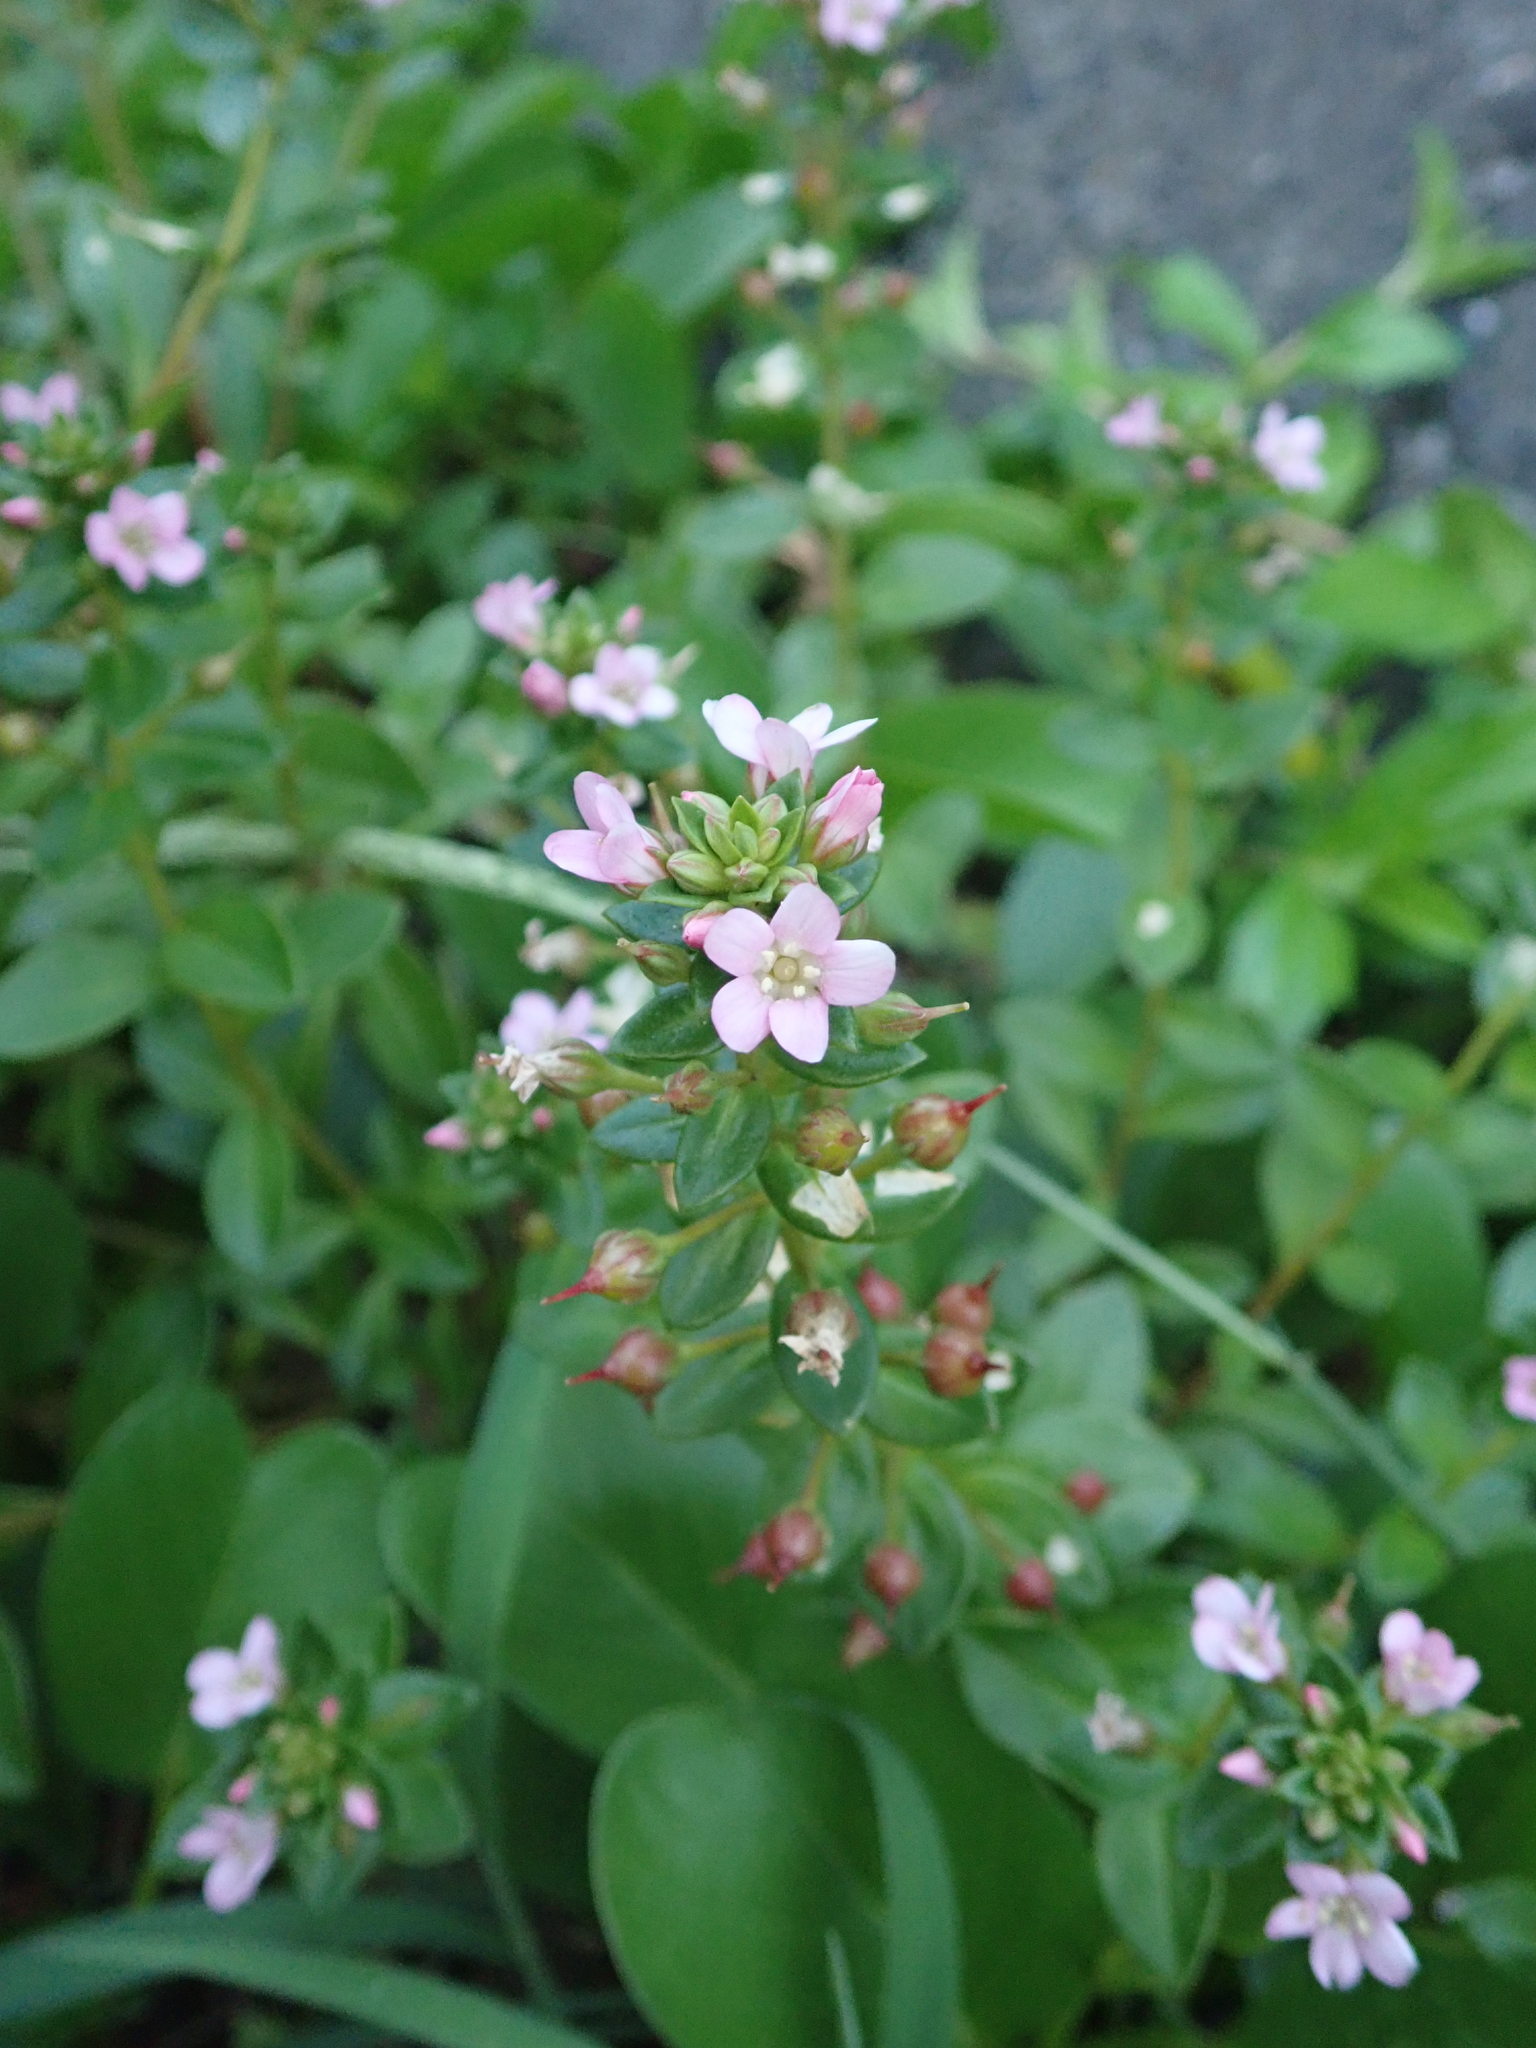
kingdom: Plantae
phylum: Tracheophyta
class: Magnoliopsida
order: Ericales
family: Primulaceae
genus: Lysimachia
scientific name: Lysimachia mauritiana
